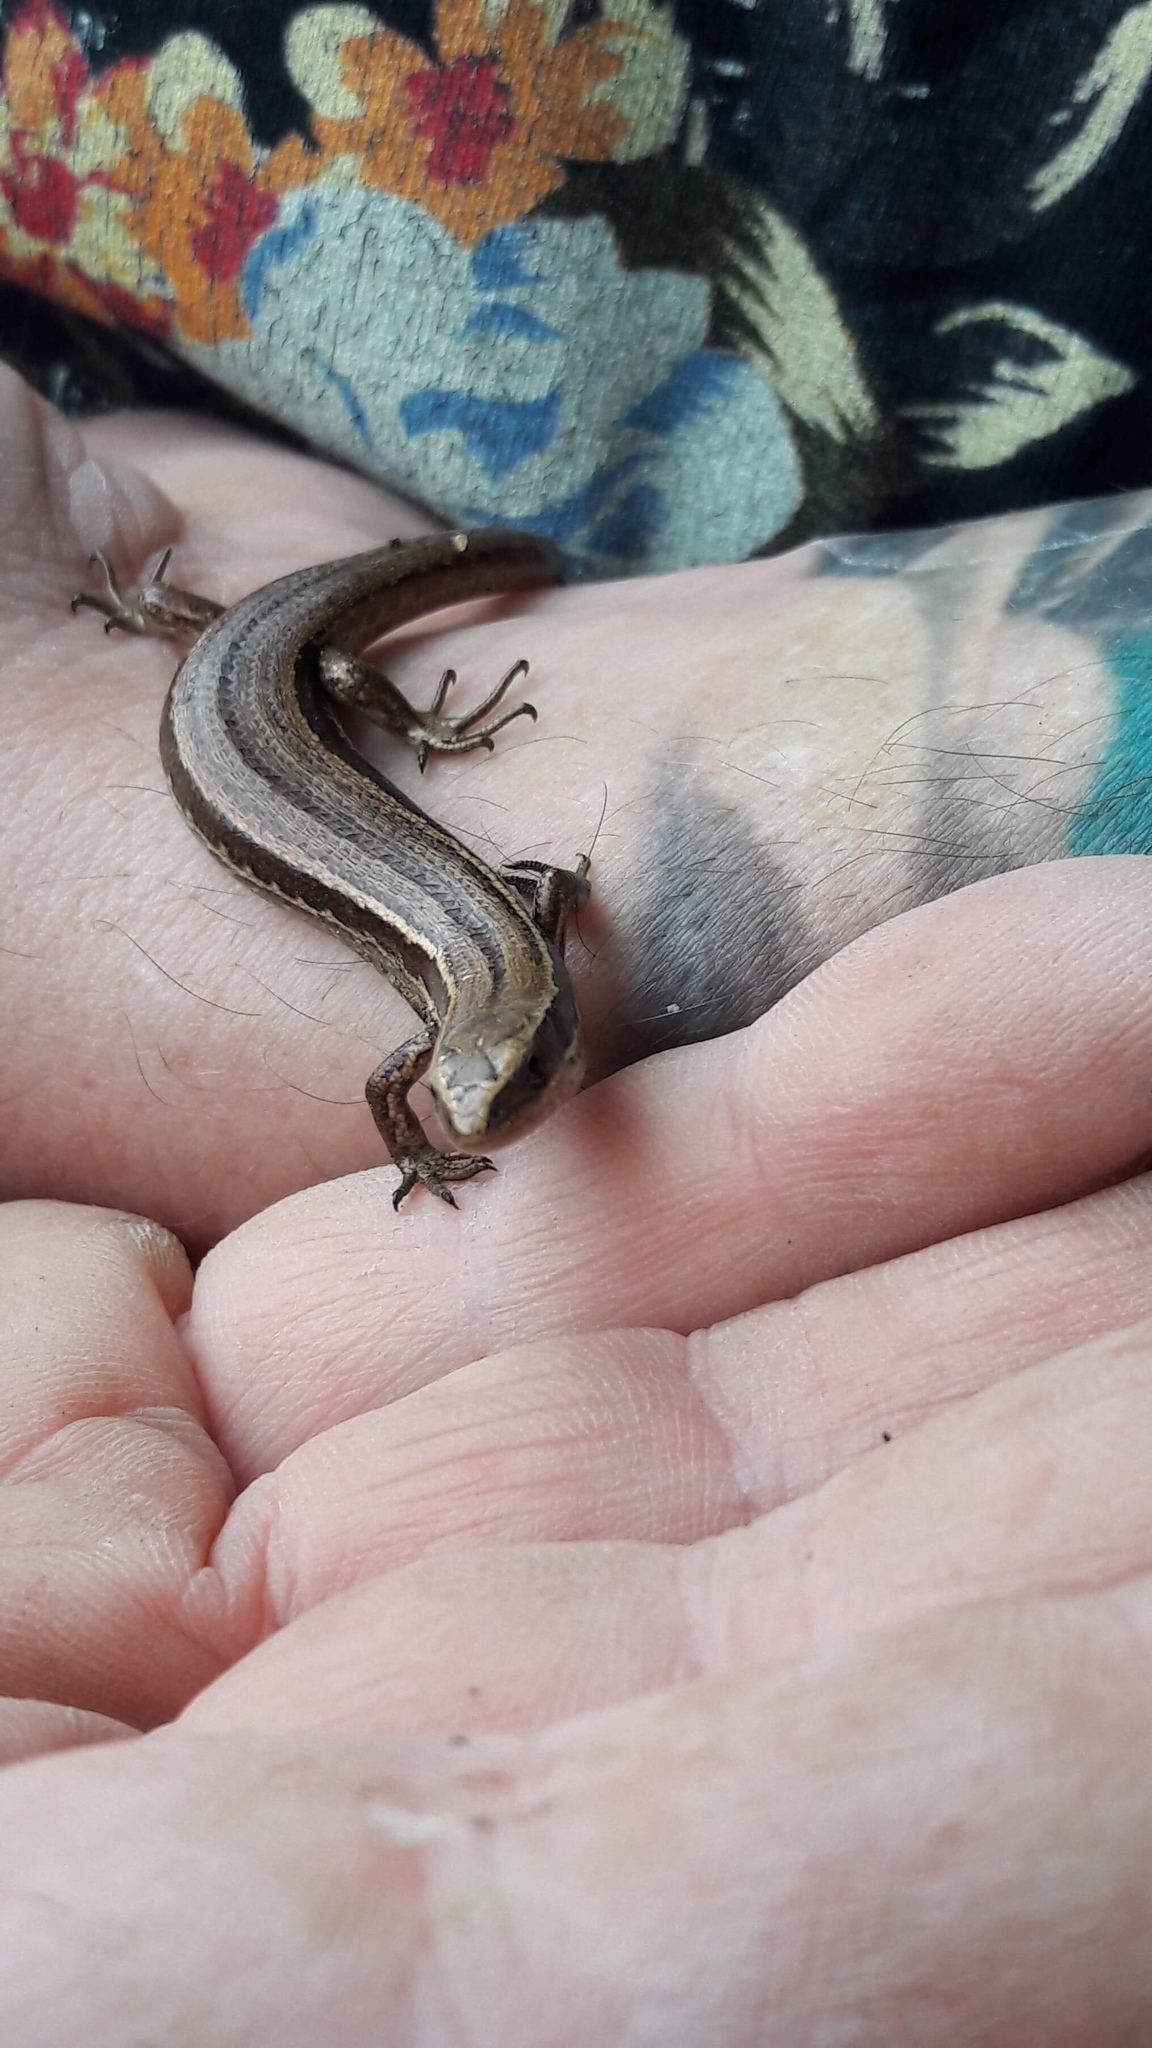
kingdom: Animalia
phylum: Chordata
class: Squamata
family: Scincidae
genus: Oligosoma
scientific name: Oligosoma polychroma
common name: Common new zealand skink
